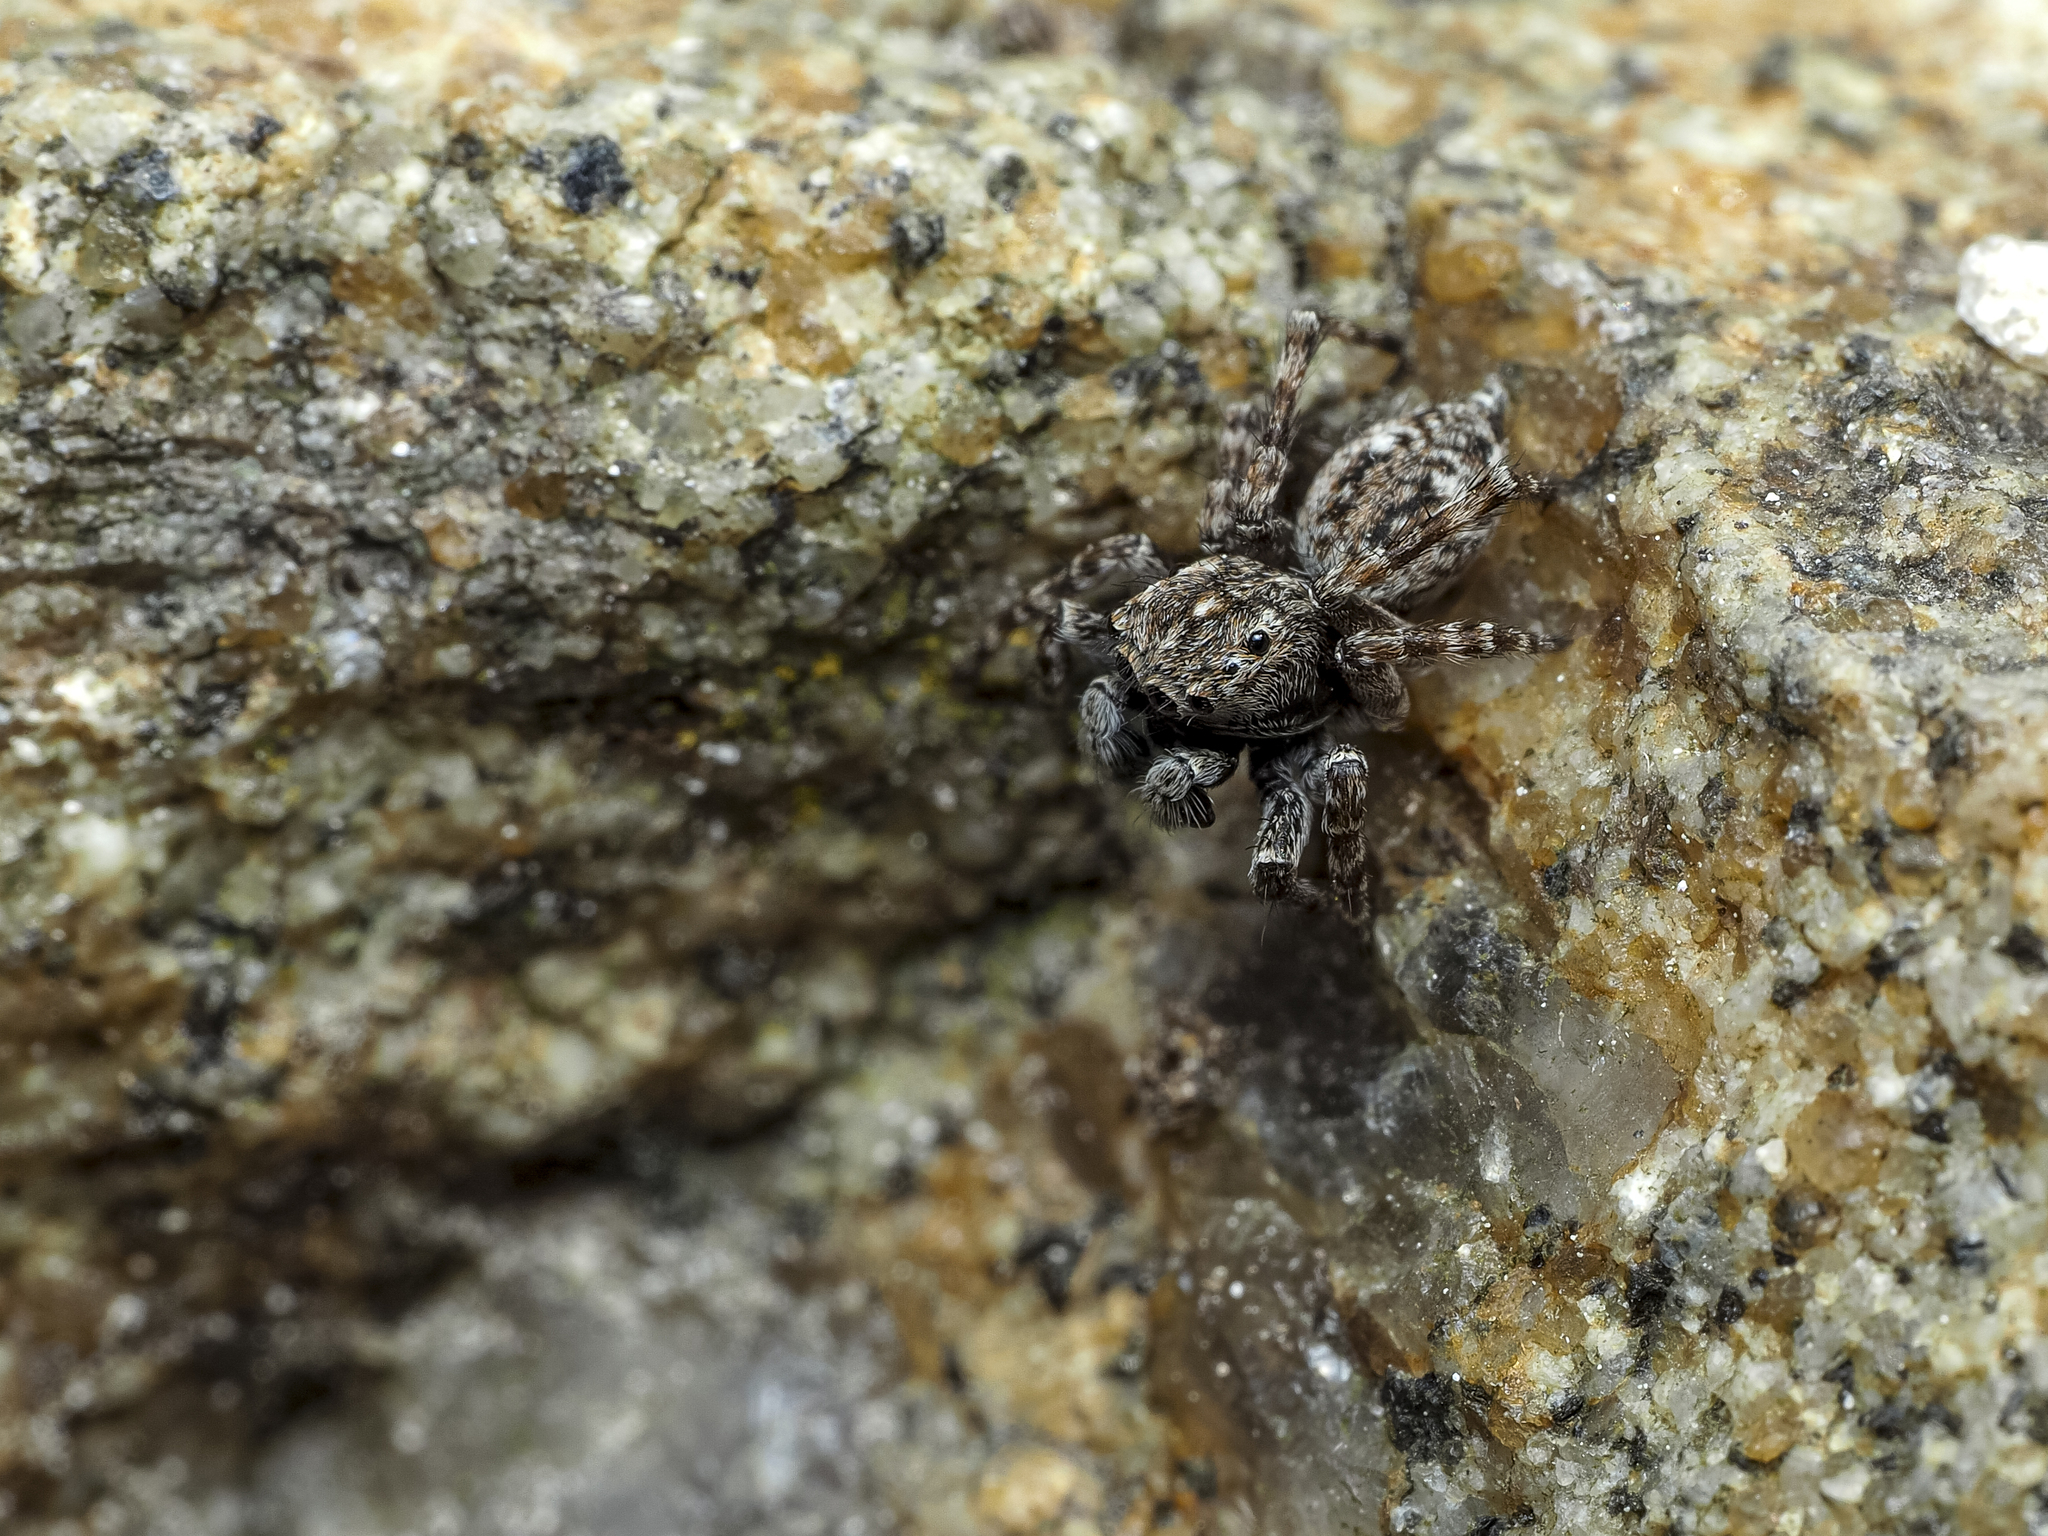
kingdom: Animalia
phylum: Arthropoda
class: Arachnida
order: Araneae
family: Salticidae
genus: Attulus
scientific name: Attulus pubescens
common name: Jumping spider
